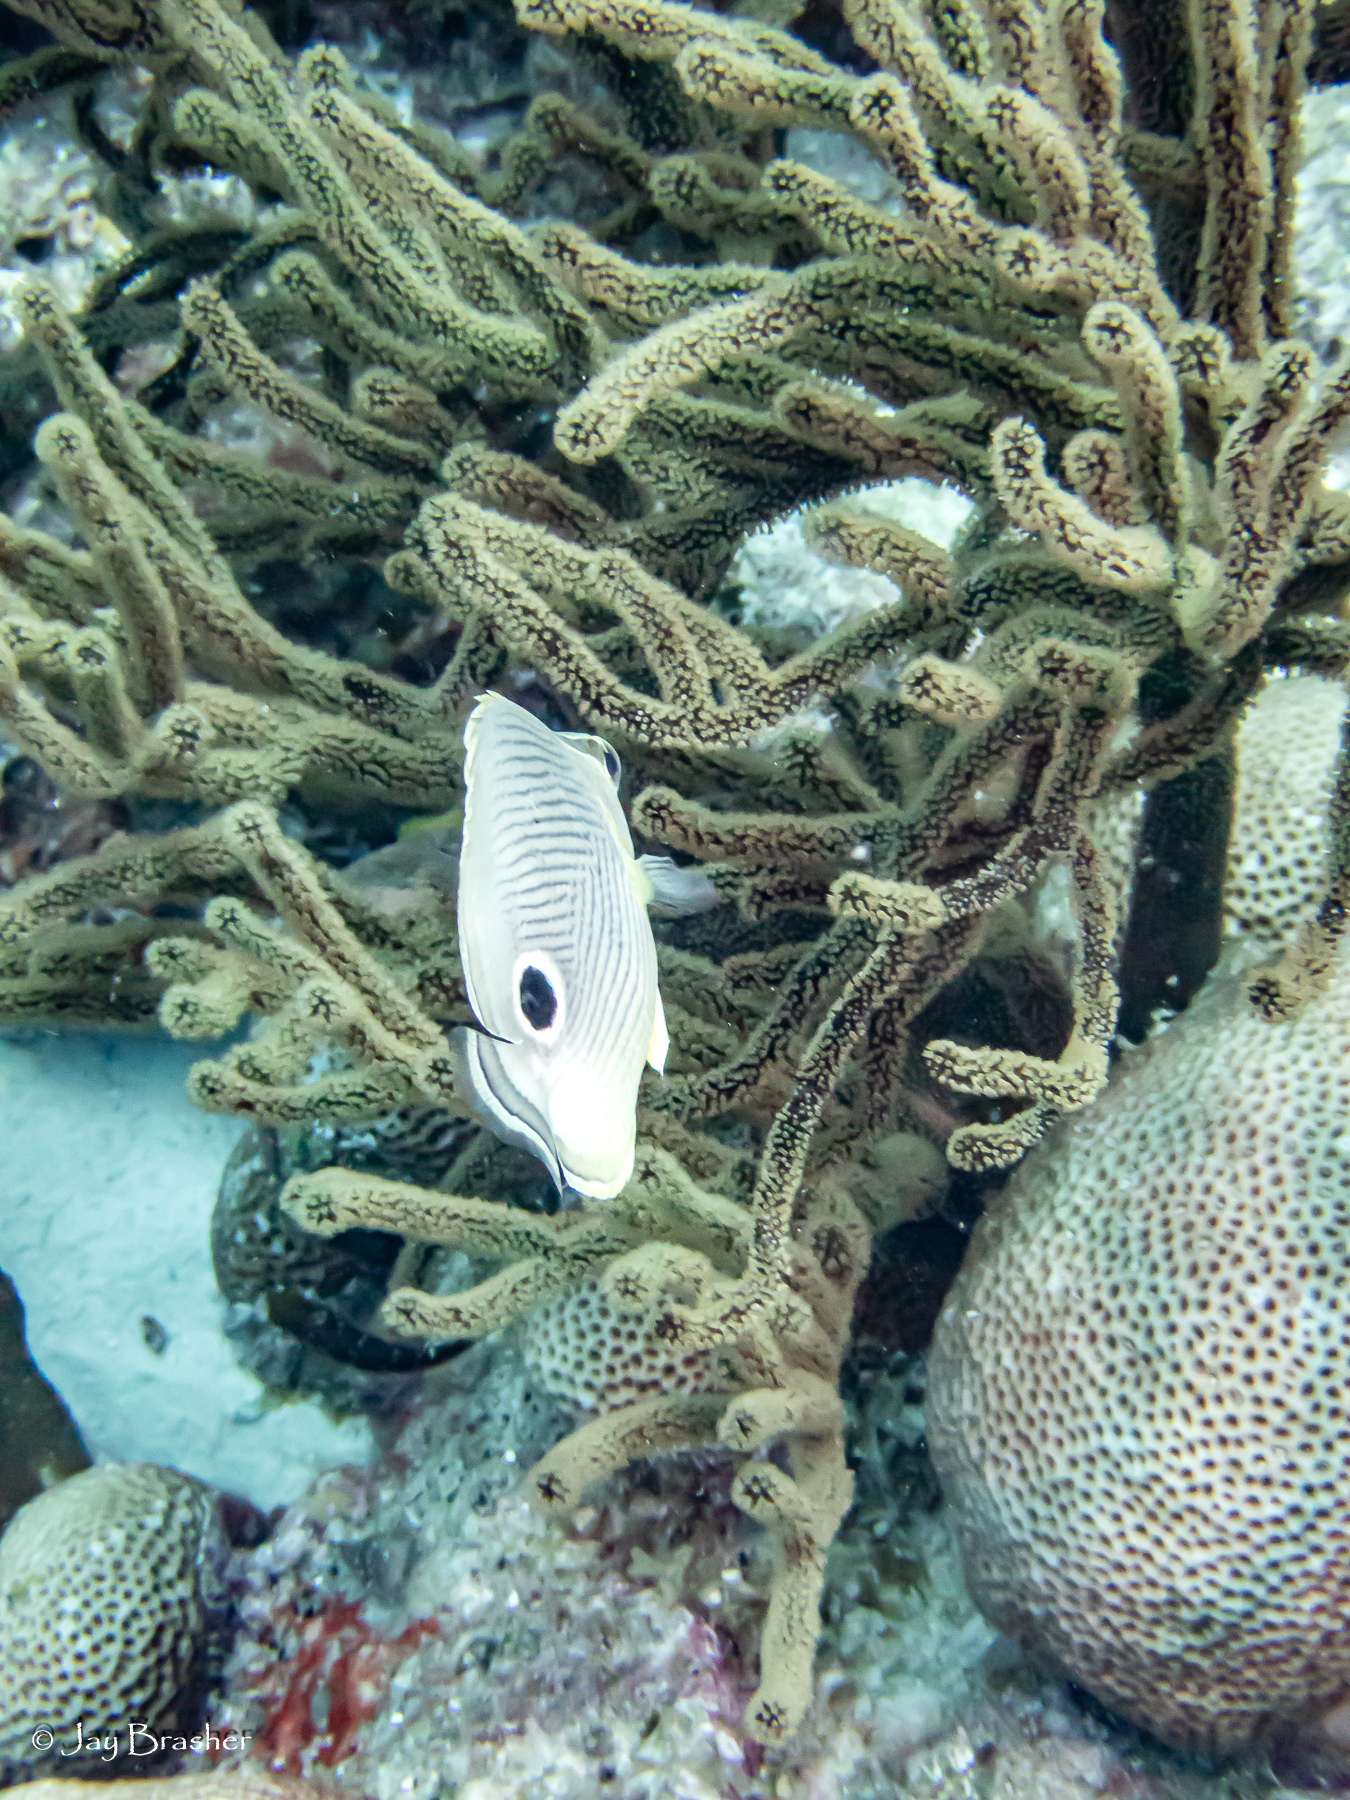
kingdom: Animalia
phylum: Chordata
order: Perciformes
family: Chaetodontidae
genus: Chaetodon
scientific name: Chaetodon capistratus
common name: Kete
